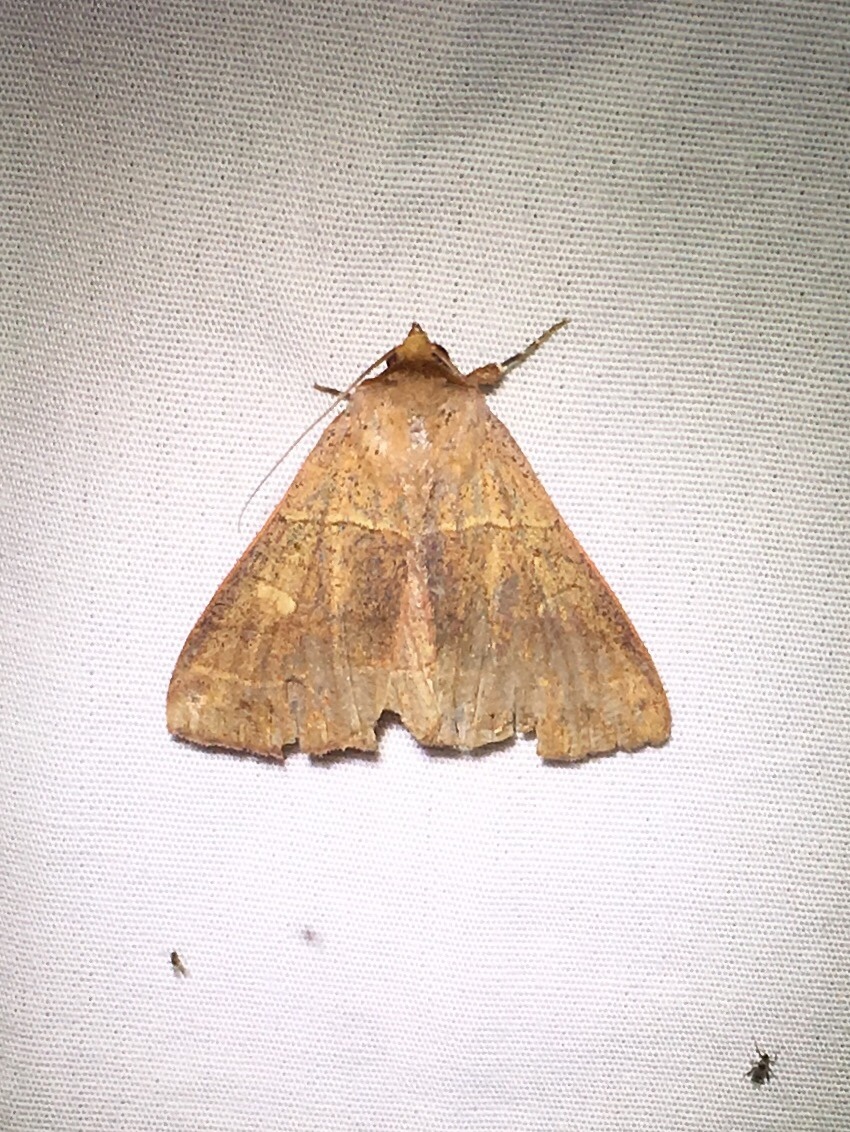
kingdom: Animalia
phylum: Arthropoda
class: Insecta
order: Lepidoptera
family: Erebidae
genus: Panopoda
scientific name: Panopoda rufimargo
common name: Red-lined panopoda moth
